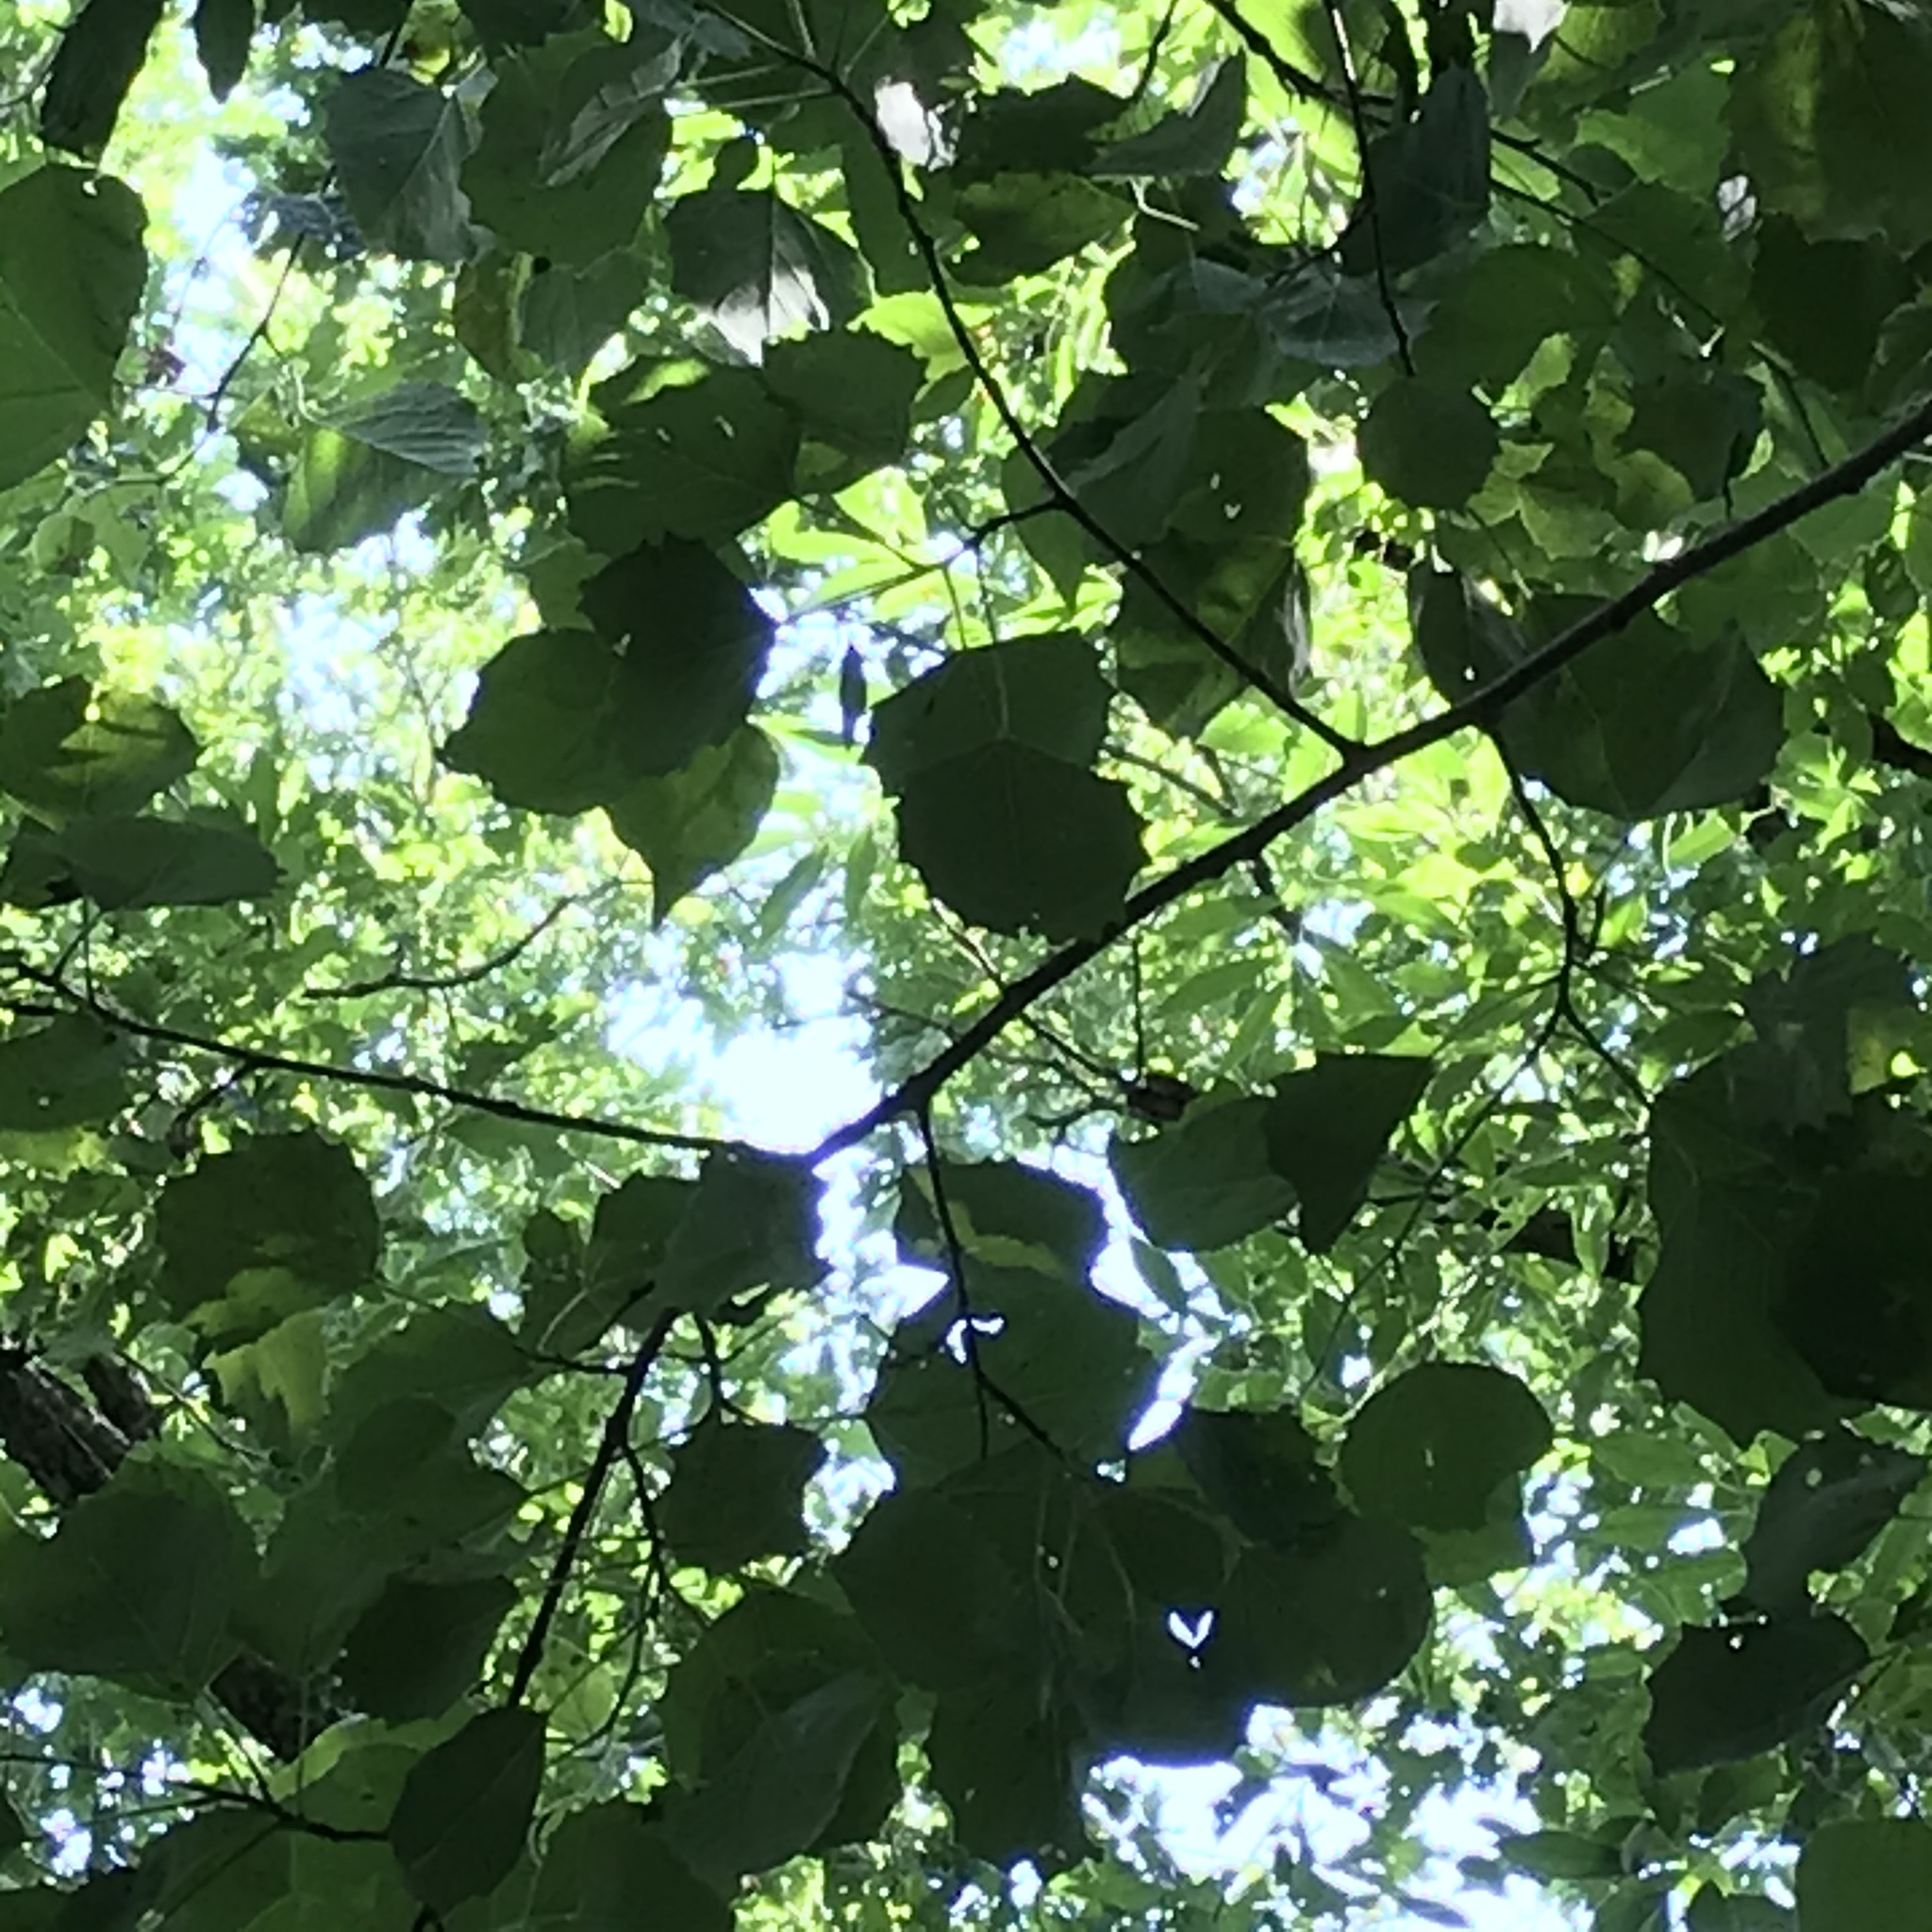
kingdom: Plantae
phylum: Tracheophyta
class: Magnoliopsida
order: Malpighiales
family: Salicaceae
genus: Populus
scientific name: Populus grandidentata
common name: Bigtooth aspen
